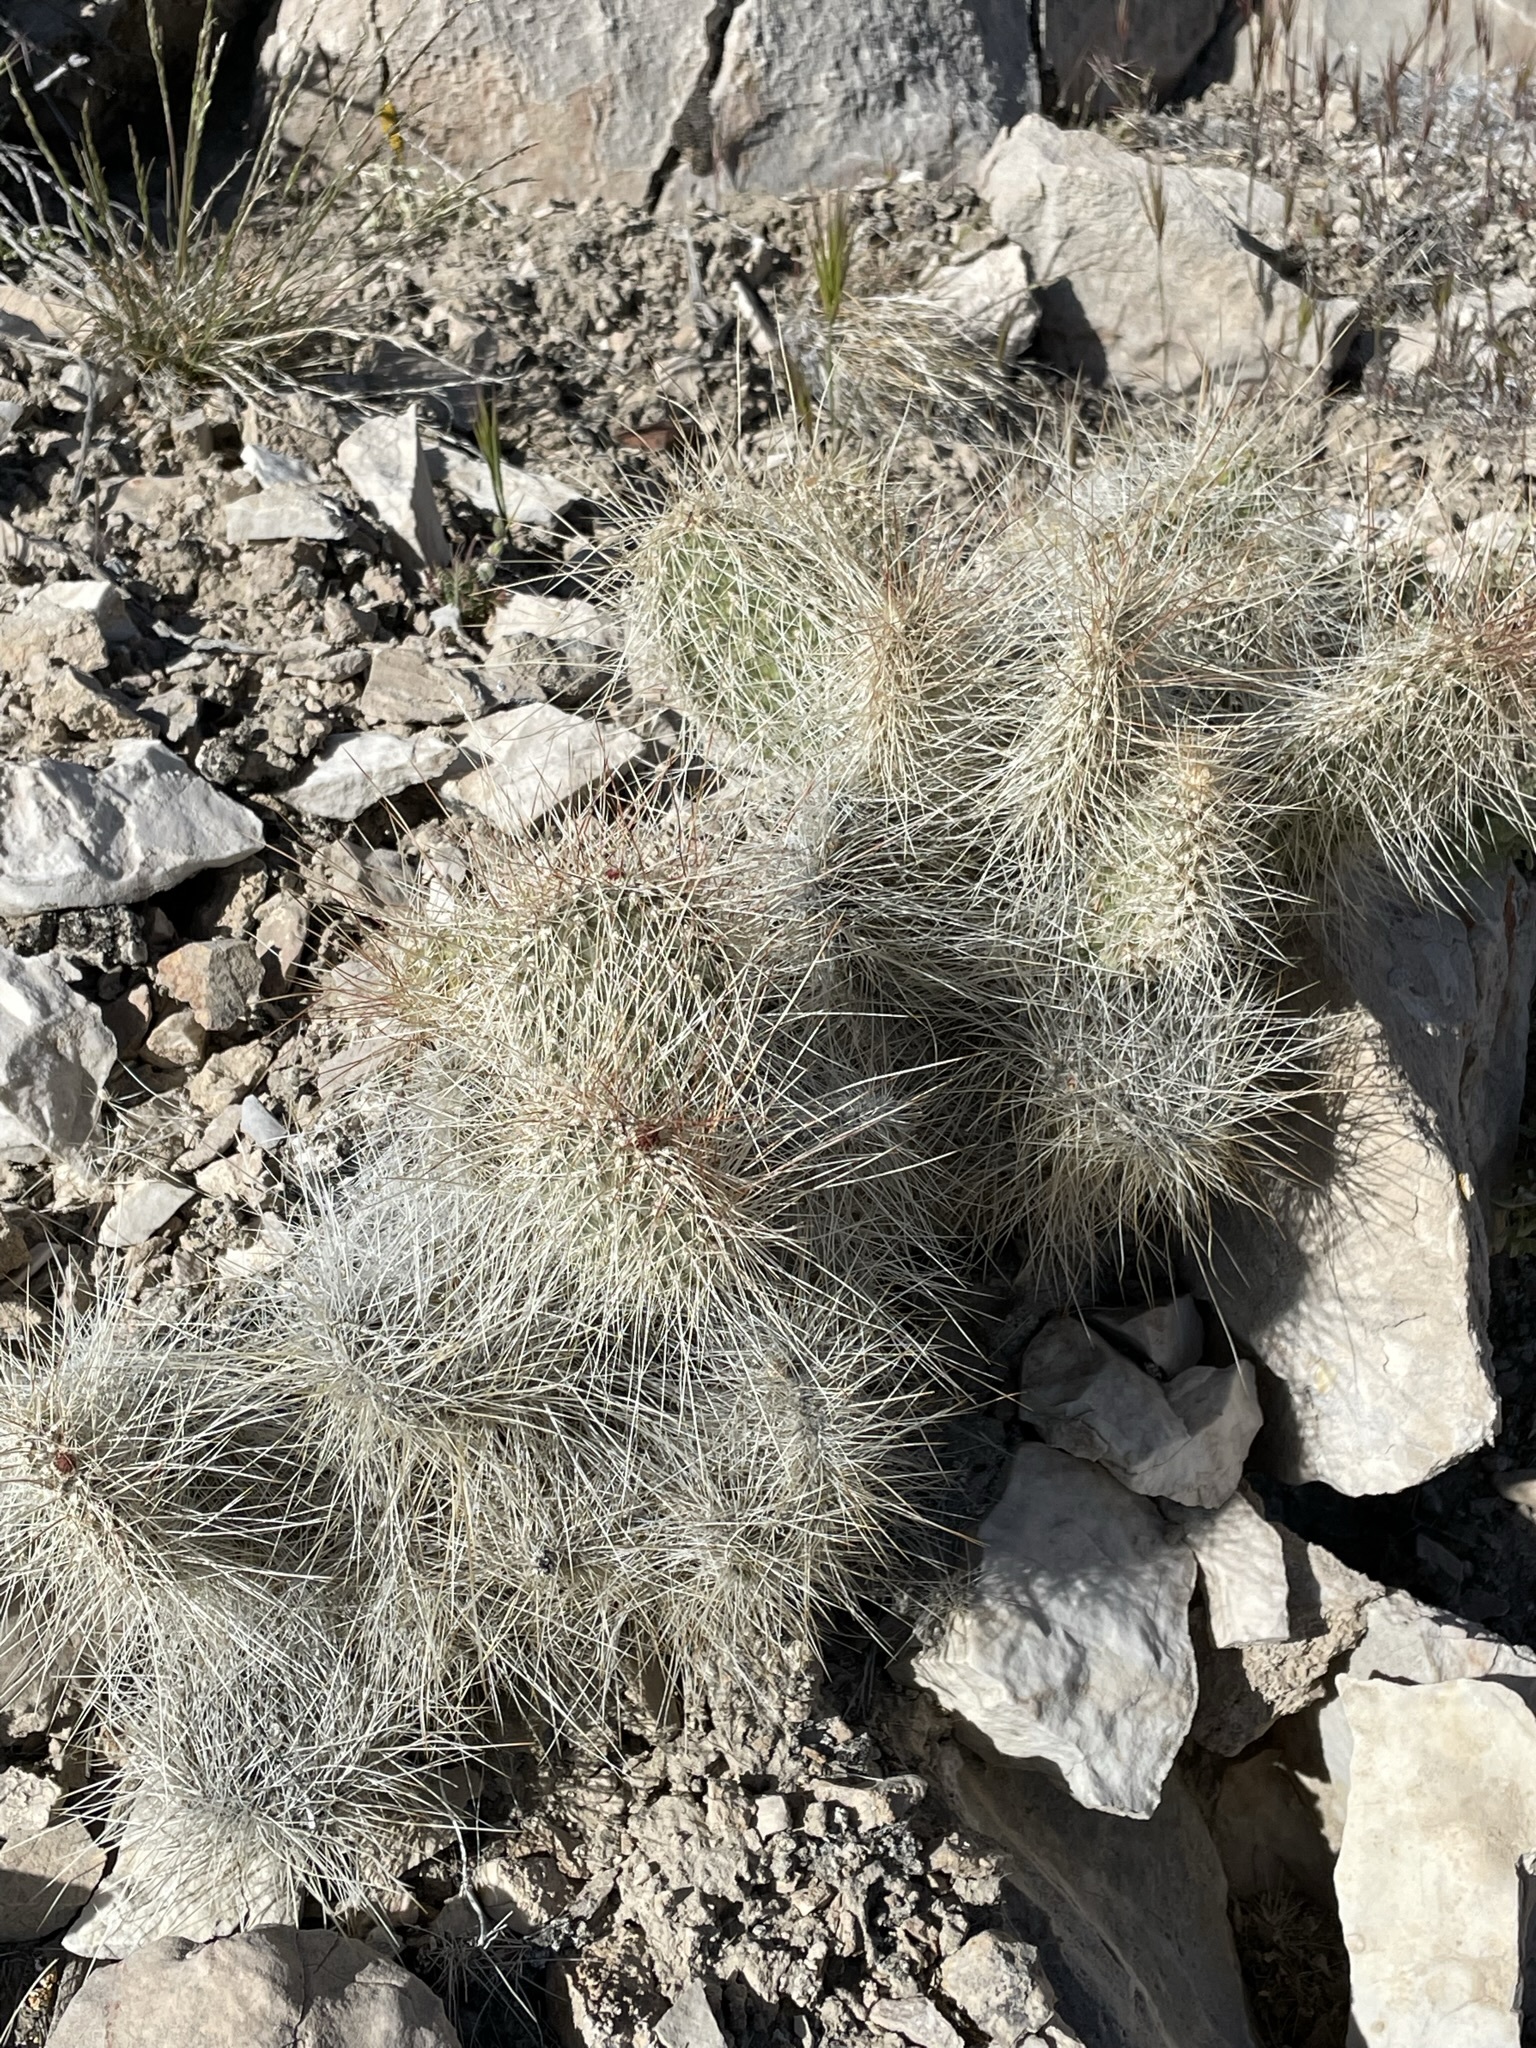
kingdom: Plantae
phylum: Tracheophyta
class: Magnoliopsida
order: Caryophyllales
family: Cactaceae
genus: Opuntia
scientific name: Opuntia polyacantha
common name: Plains prickly-pear
